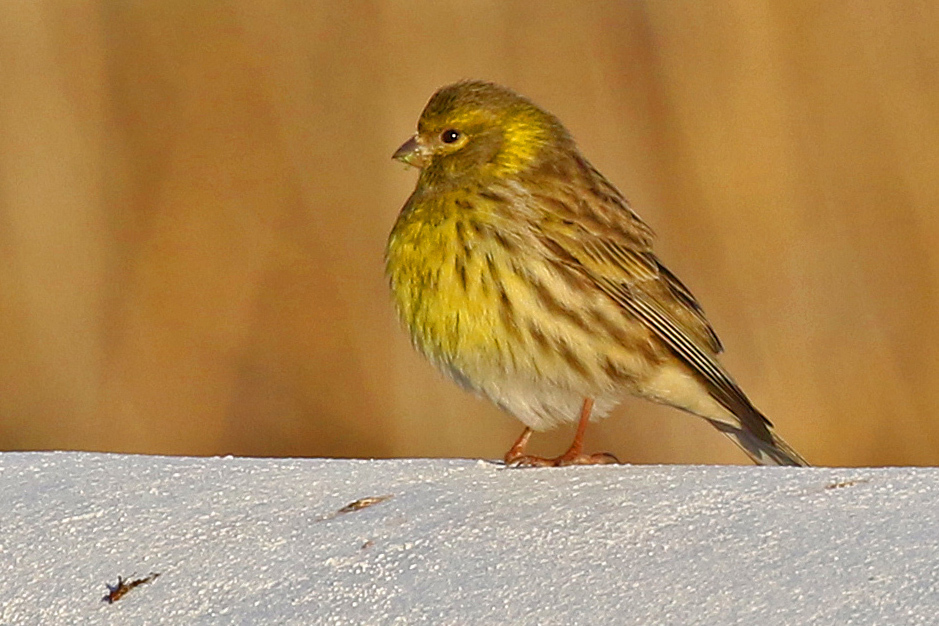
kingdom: Animalia
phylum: Chordata
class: Aves
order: Passeriformes
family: Fringillidae
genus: Serinus
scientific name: Serinus serinus
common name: European serin
